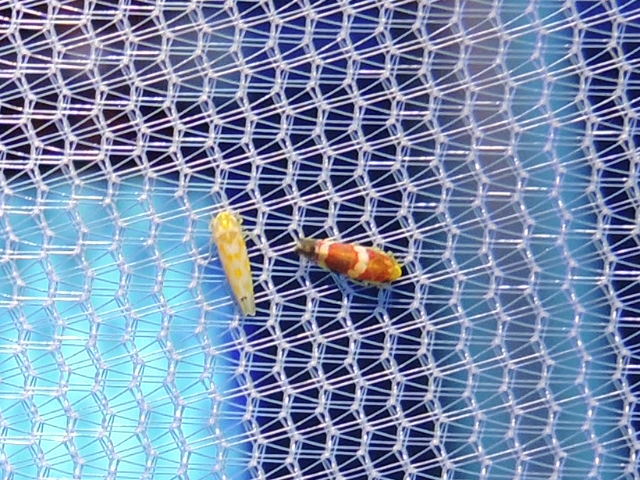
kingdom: Animalia
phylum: Arthropoda
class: Insecta
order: Hemiptera
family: Cicadellidae
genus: Erythroneura
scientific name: Erythroneura vitis
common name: Grapevine leafhopper
